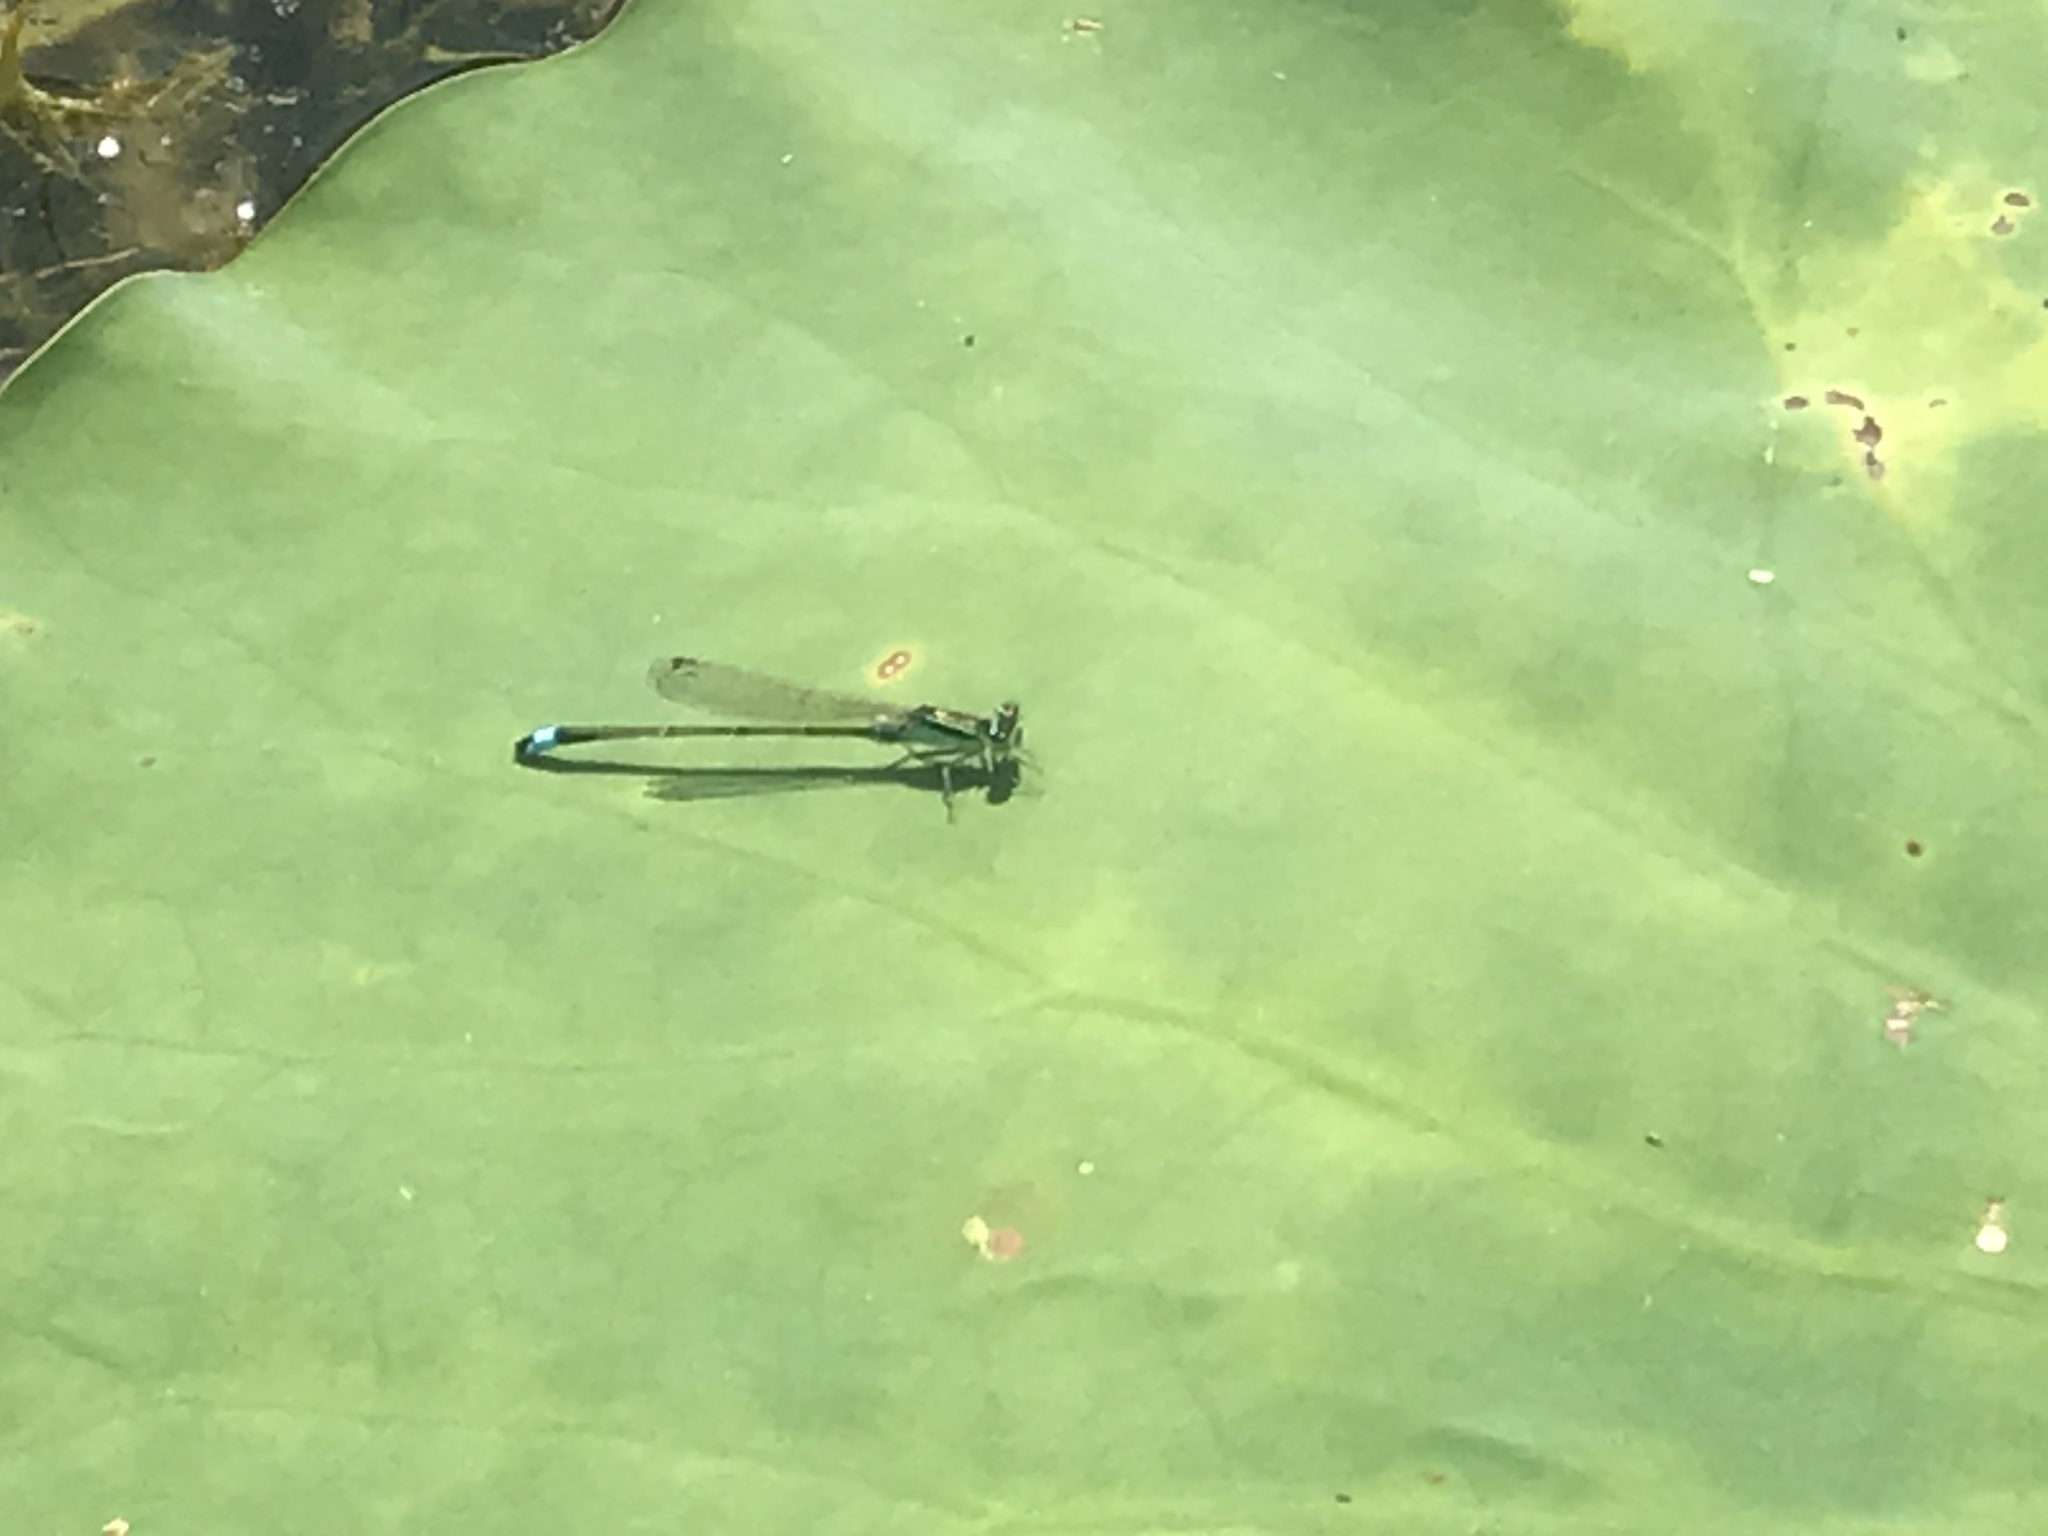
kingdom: Animalia
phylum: Arthropoda
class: Insecta
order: Odonata
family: Coenagrionidae
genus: Ischnura
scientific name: Ischnura senegalensis
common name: Tropical bluetail
